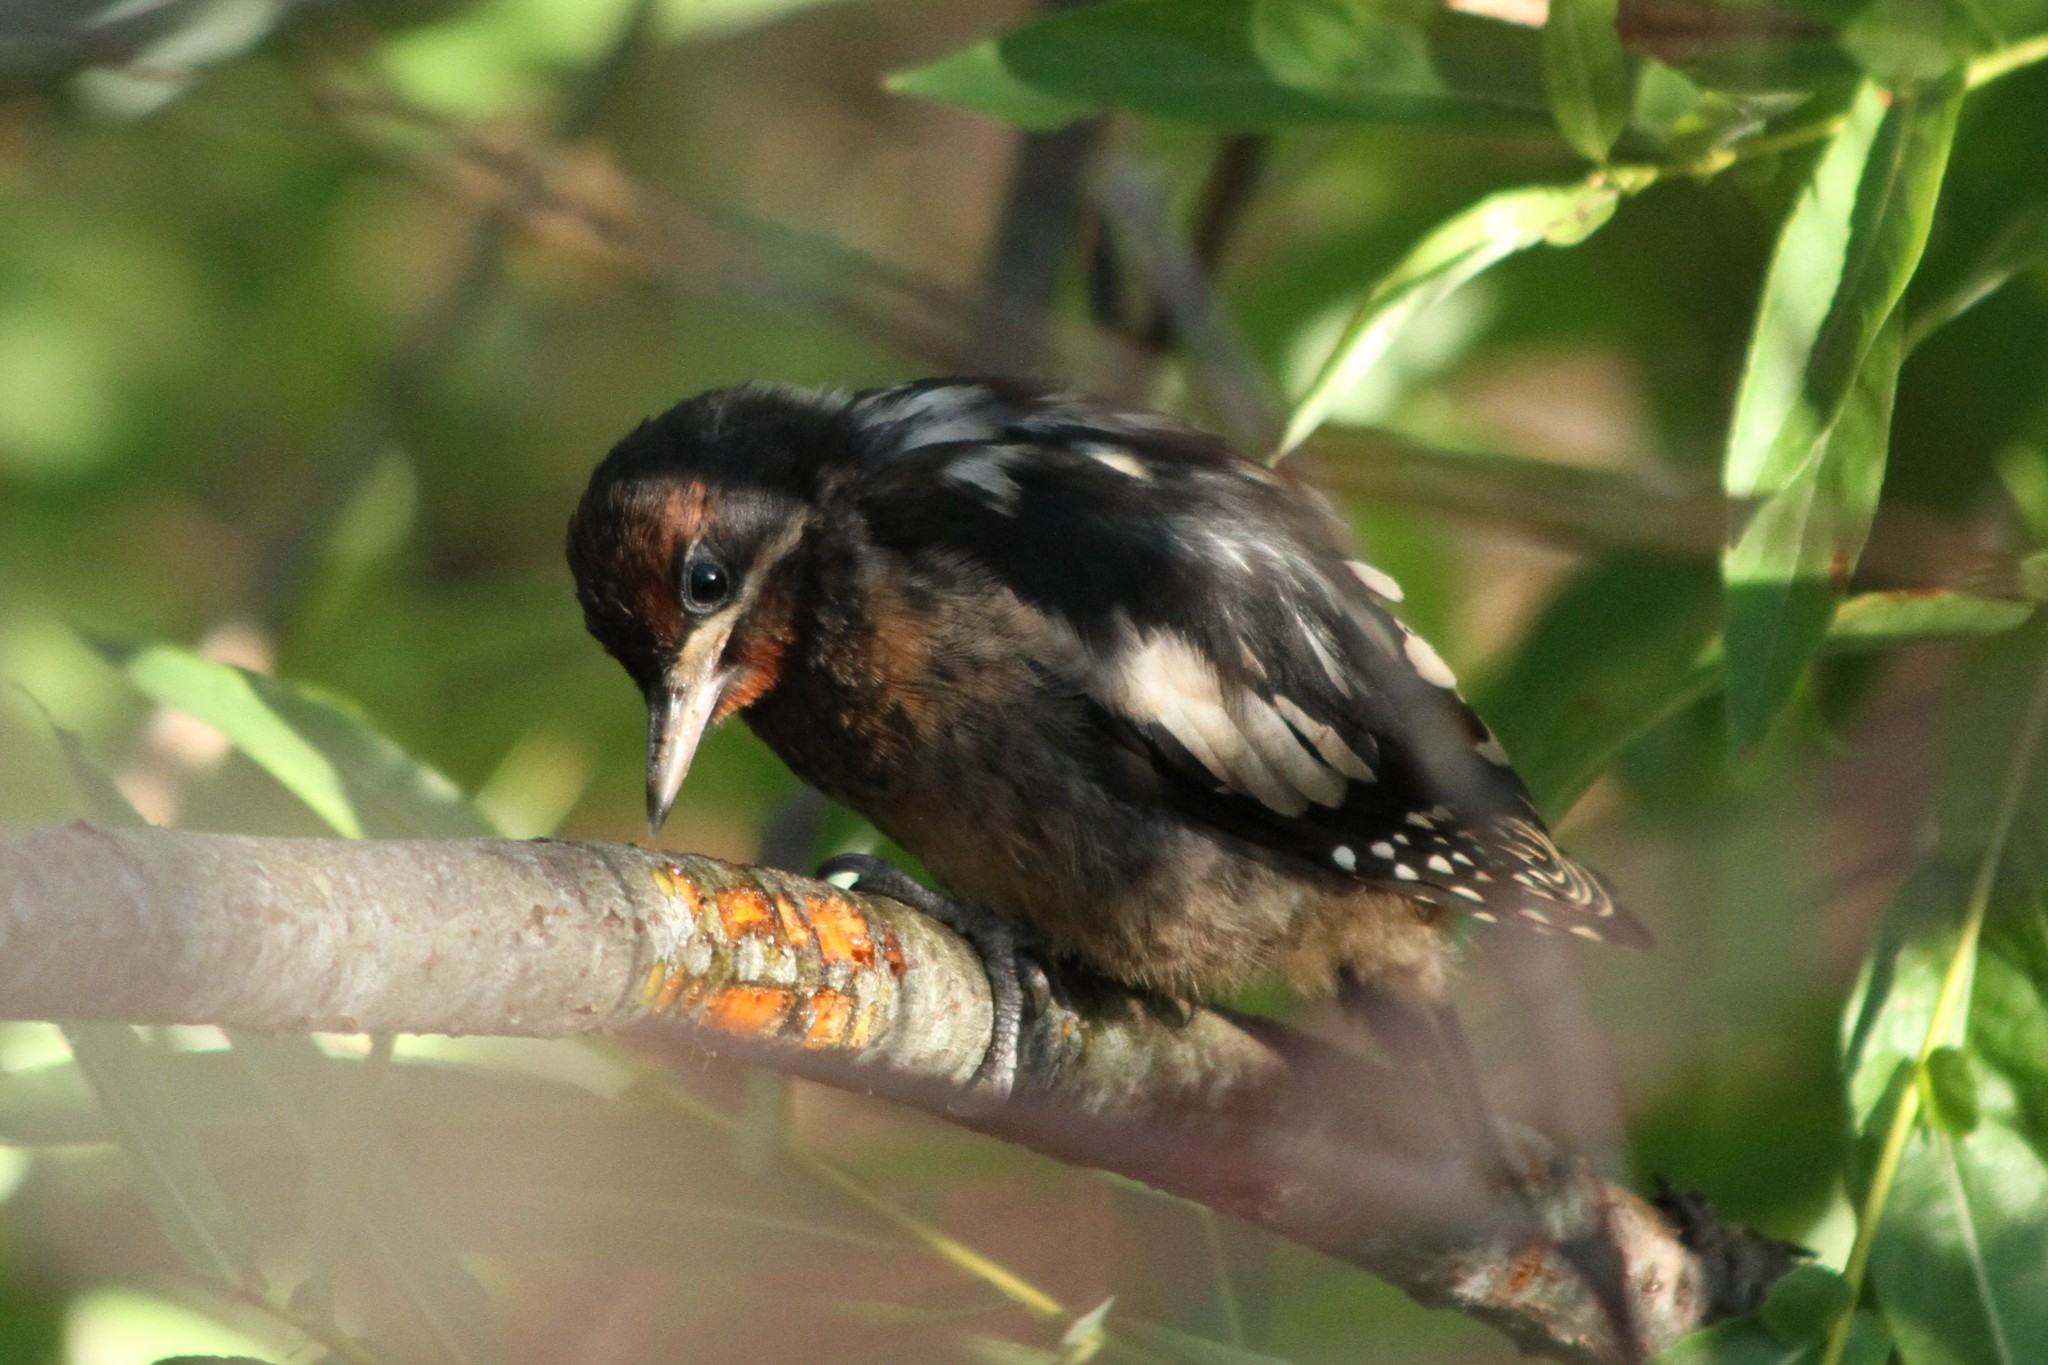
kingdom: Animalia
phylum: Chordata
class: Aves
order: Piciformes
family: Picidae
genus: Sphyrapicus
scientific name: Sphyrapicus ruber
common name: Red-breasted sapsucker
